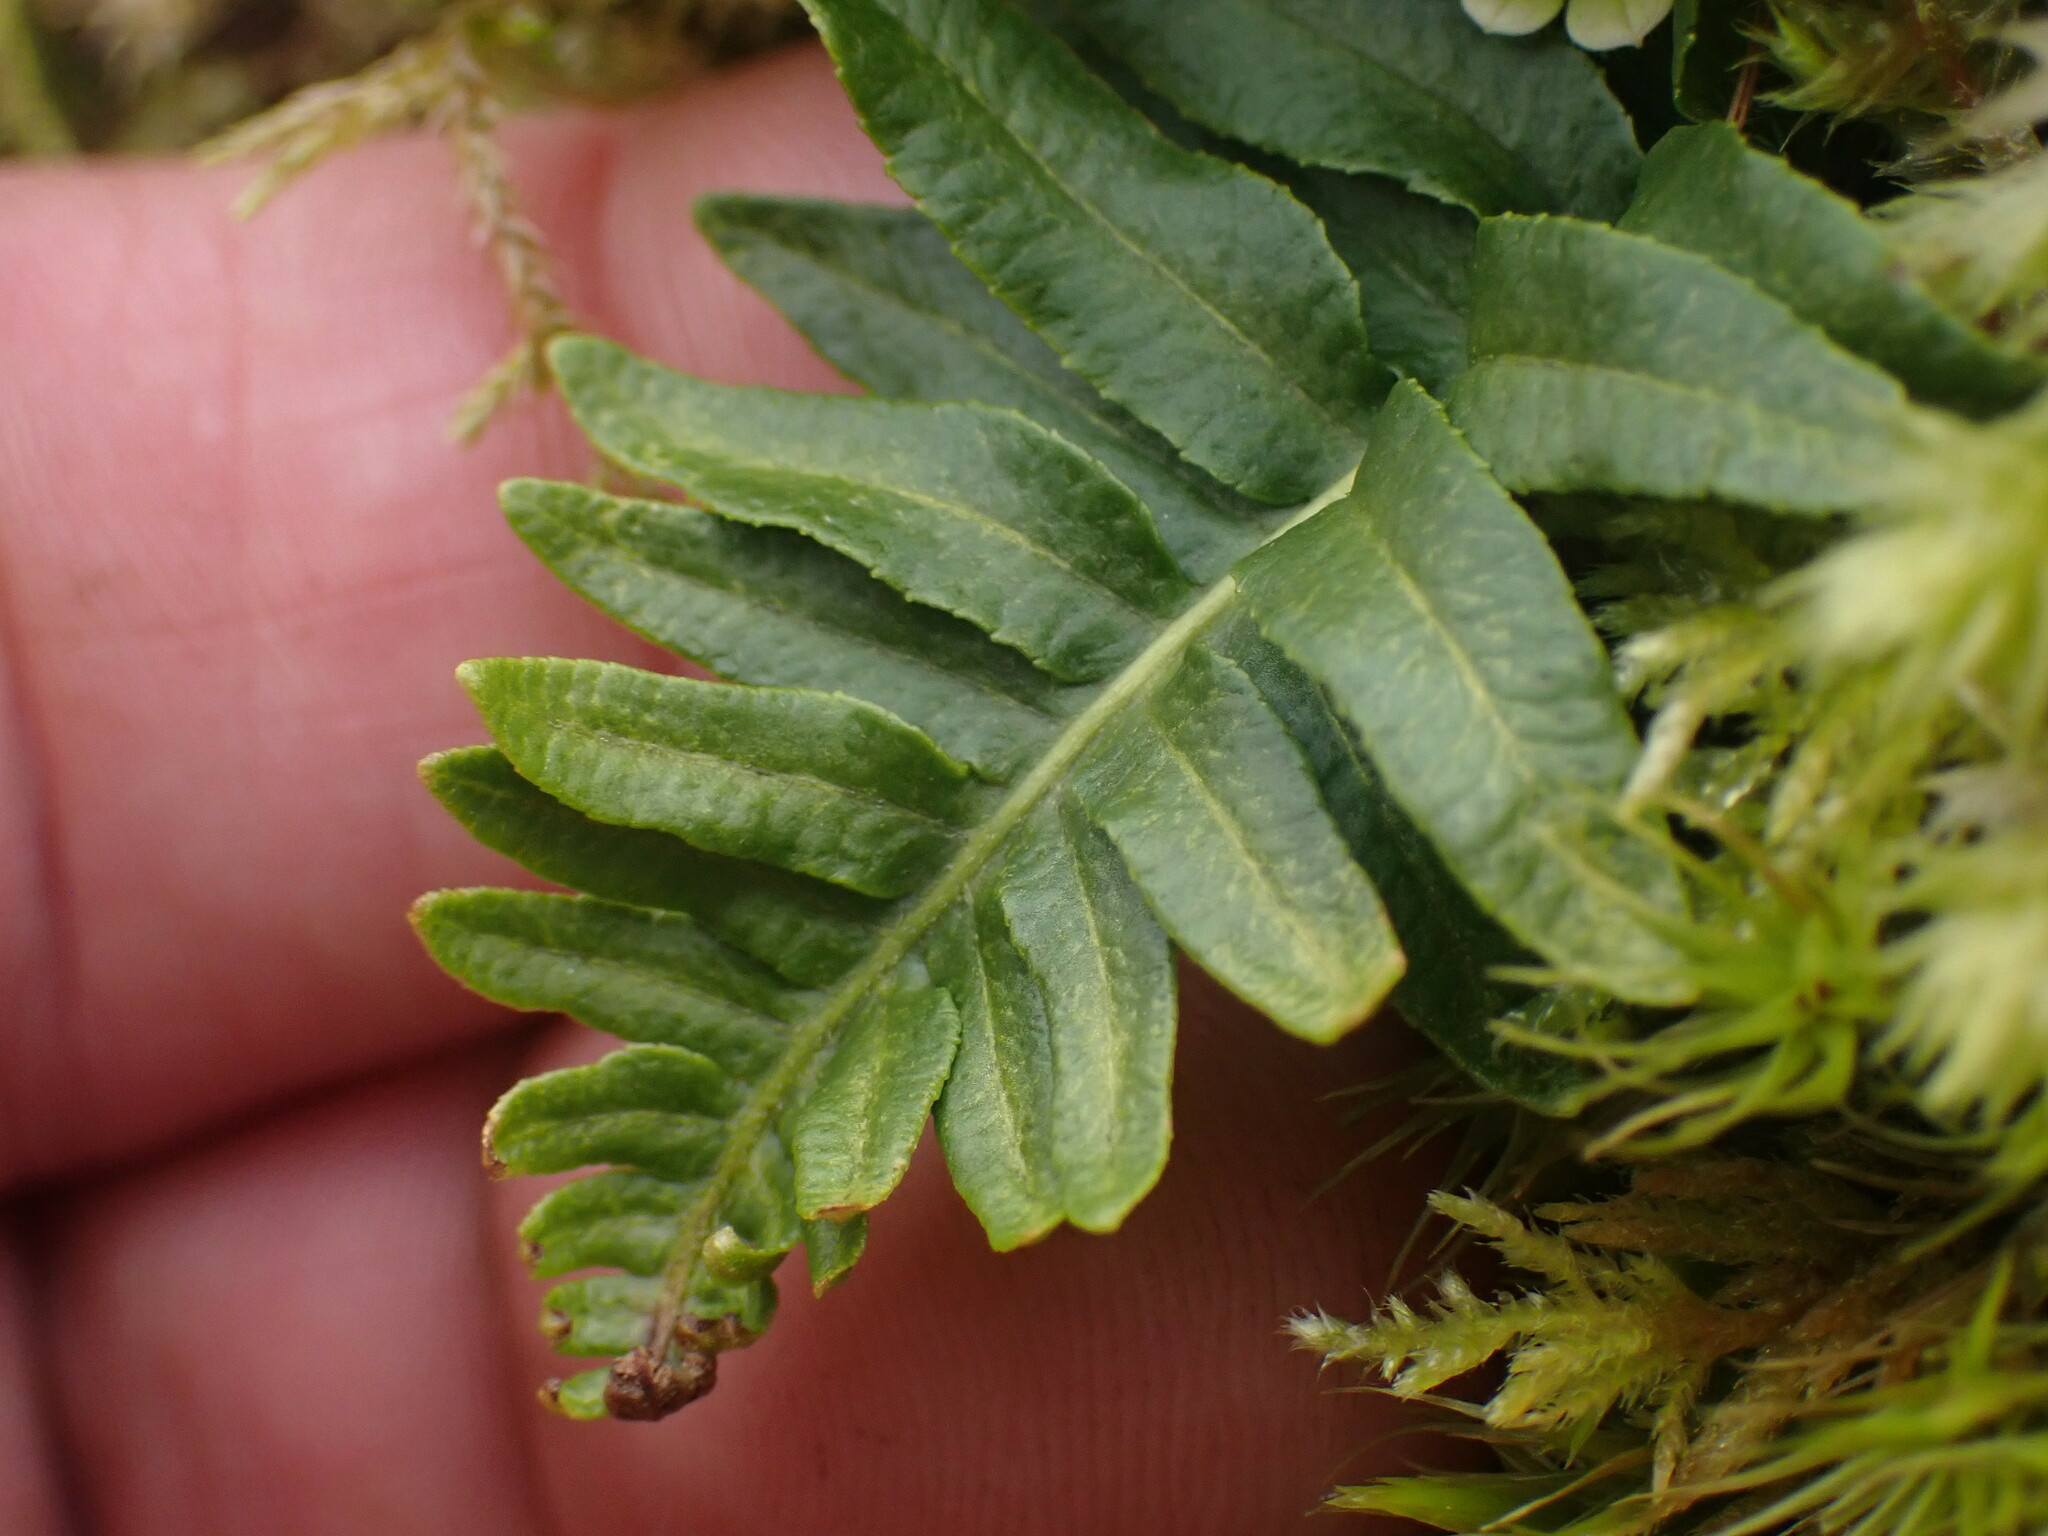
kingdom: Plantae
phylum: Tracheophyta
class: Polypodiopsida
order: Polypodiales
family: Polypodiaceae
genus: Polypodium
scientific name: Polypodium glycyrrhiza
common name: Licorice fern
